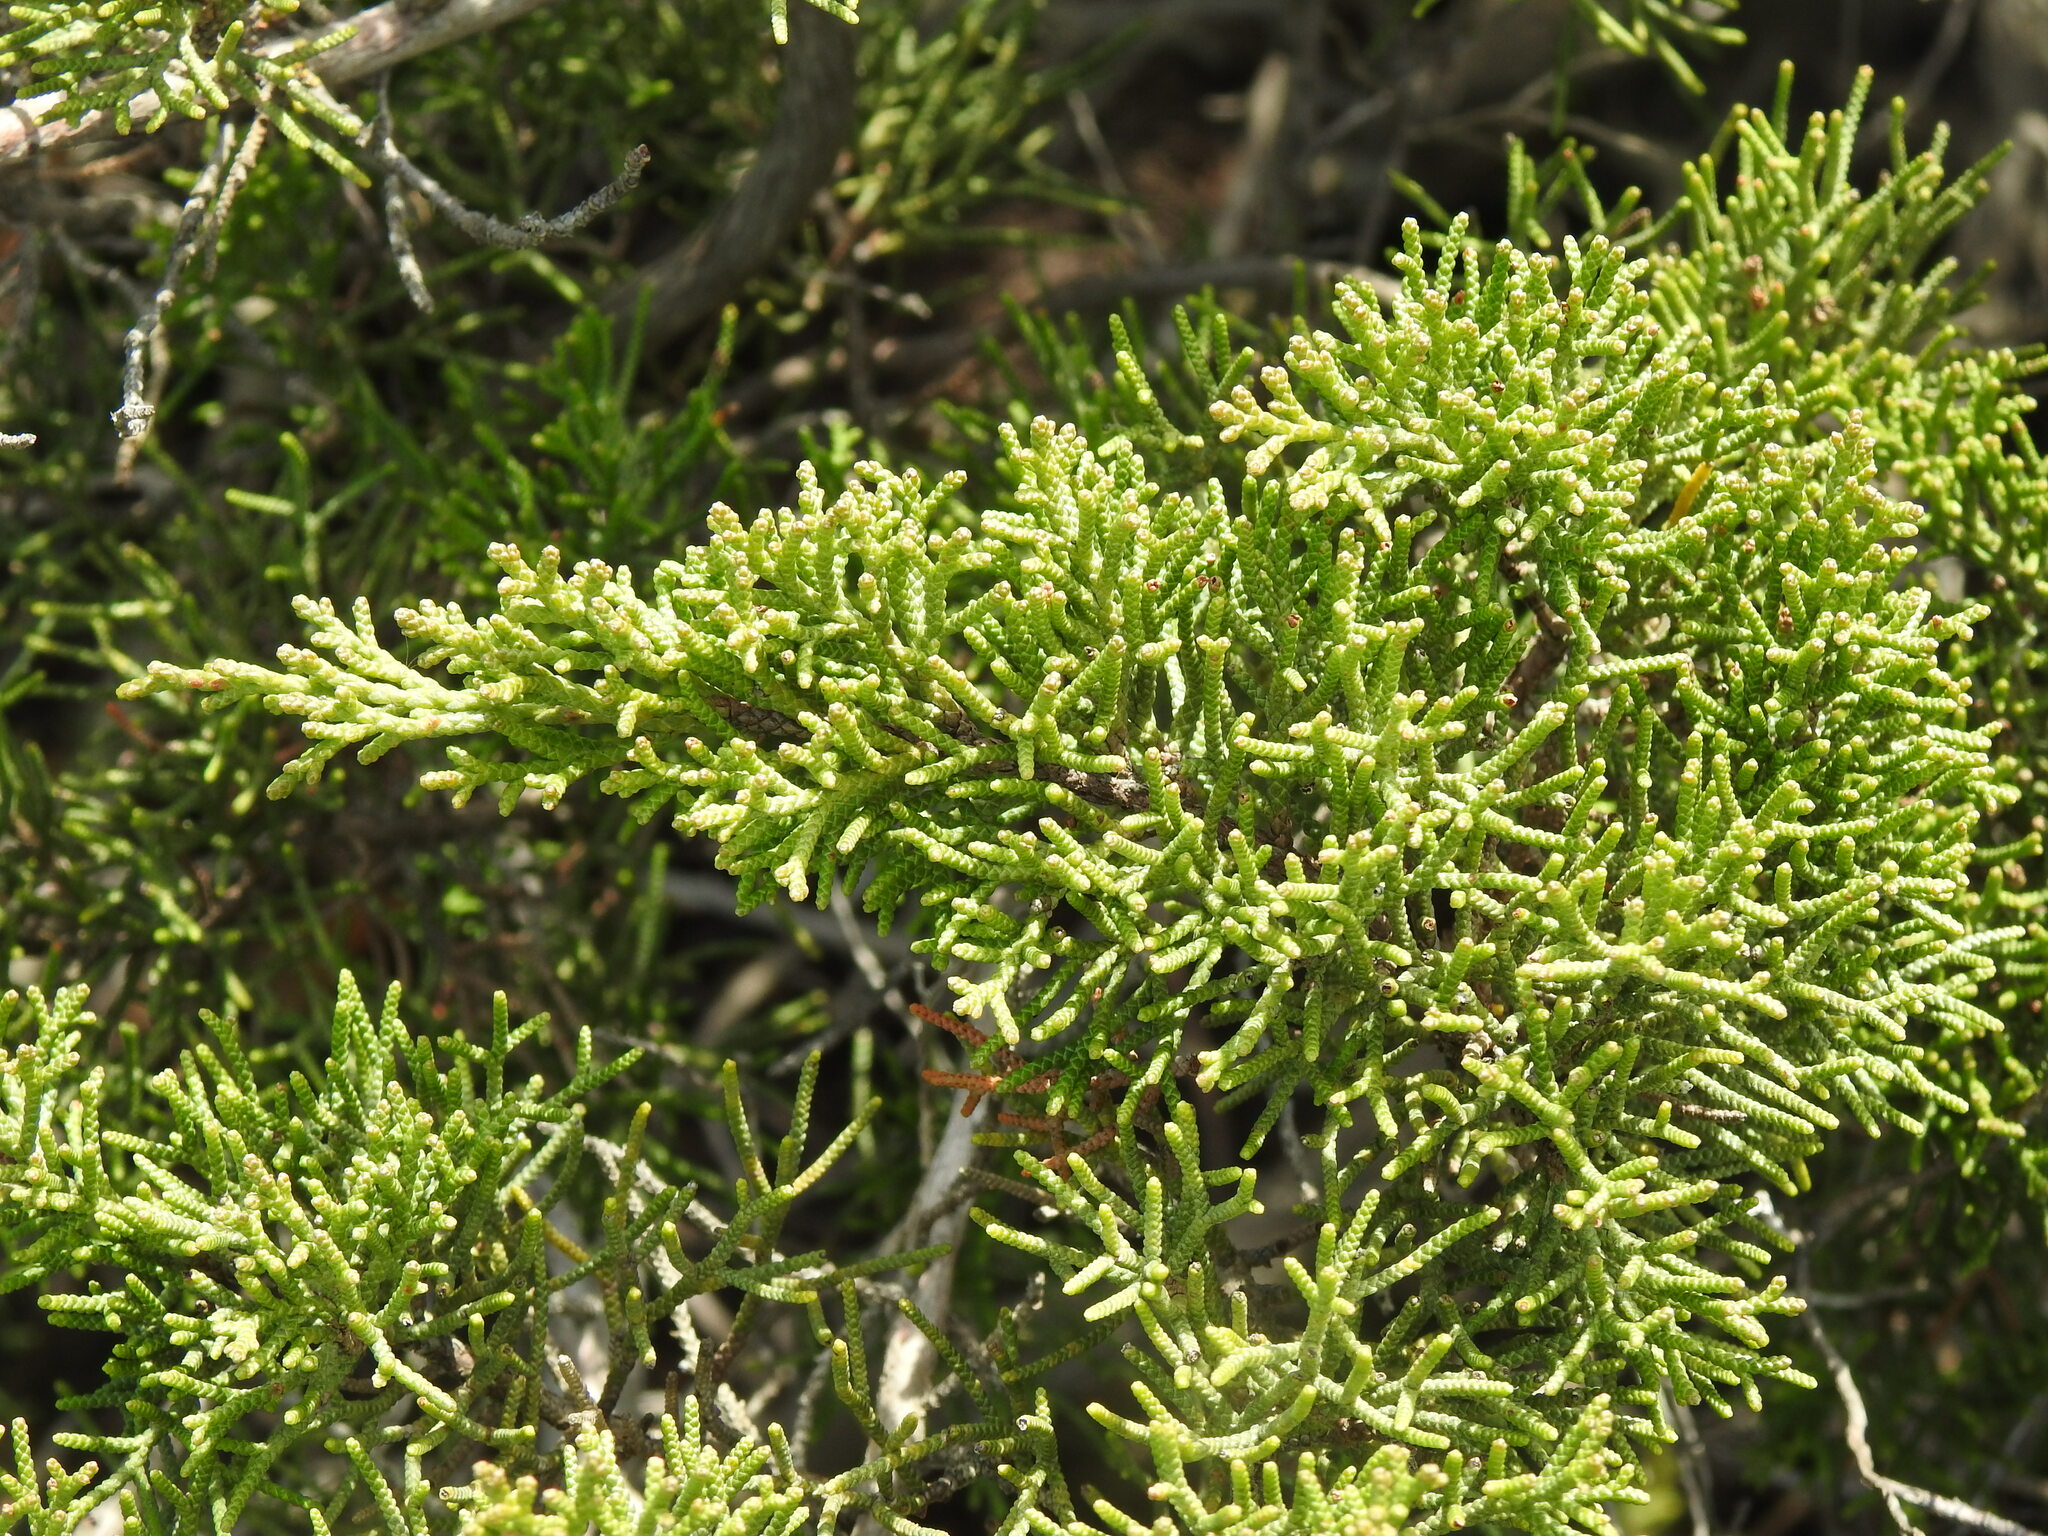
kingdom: Plantae
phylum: Tracheophyta
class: Pinopsida
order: Pinales
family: Cupressaceae
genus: Juniperus
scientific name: Juniperus phoenicea
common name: Phoenician juniper
